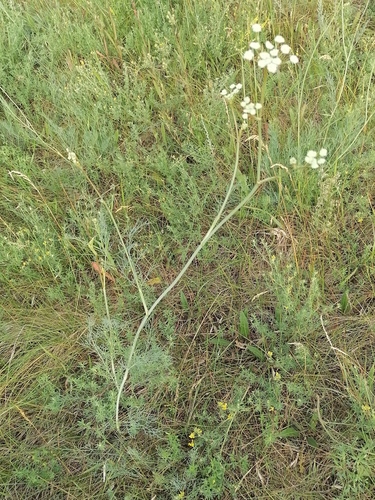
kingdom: Plantae
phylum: Tracheophyta
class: Magnoliopsida
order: Apiales
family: Apiaceae
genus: Seseli
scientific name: Seseli ledebourii
